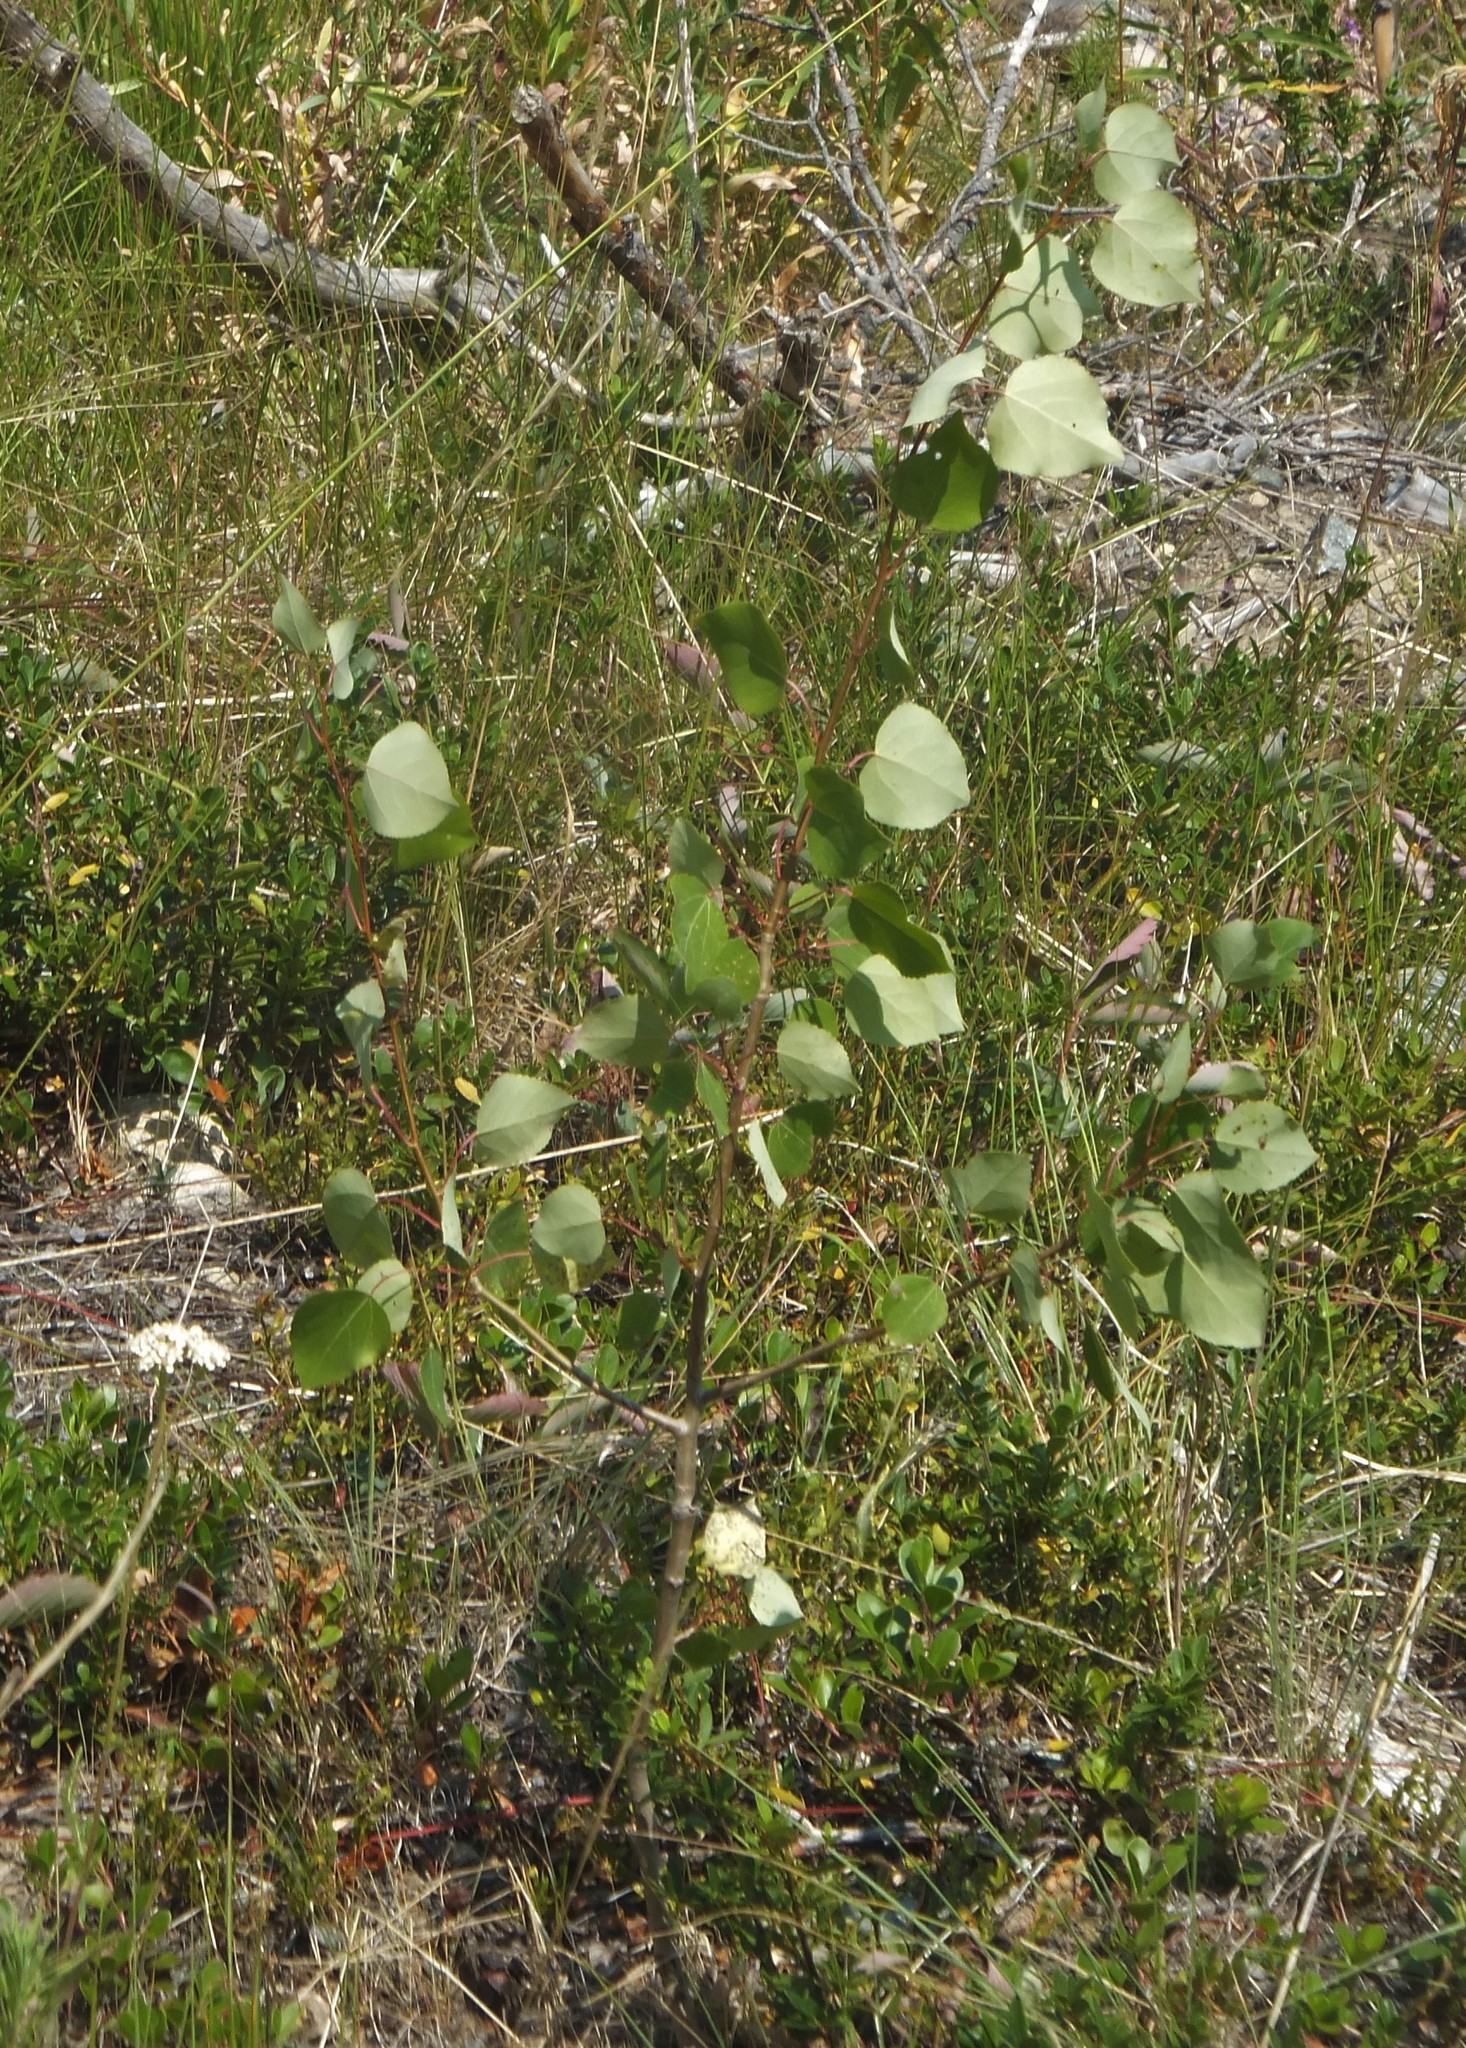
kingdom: Plantae
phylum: Tracheophyta
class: Magnoliopsida
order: Malpighiales
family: Salicaceae
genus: Populus
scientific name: Populus tremuloides
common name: Quaking aspen
